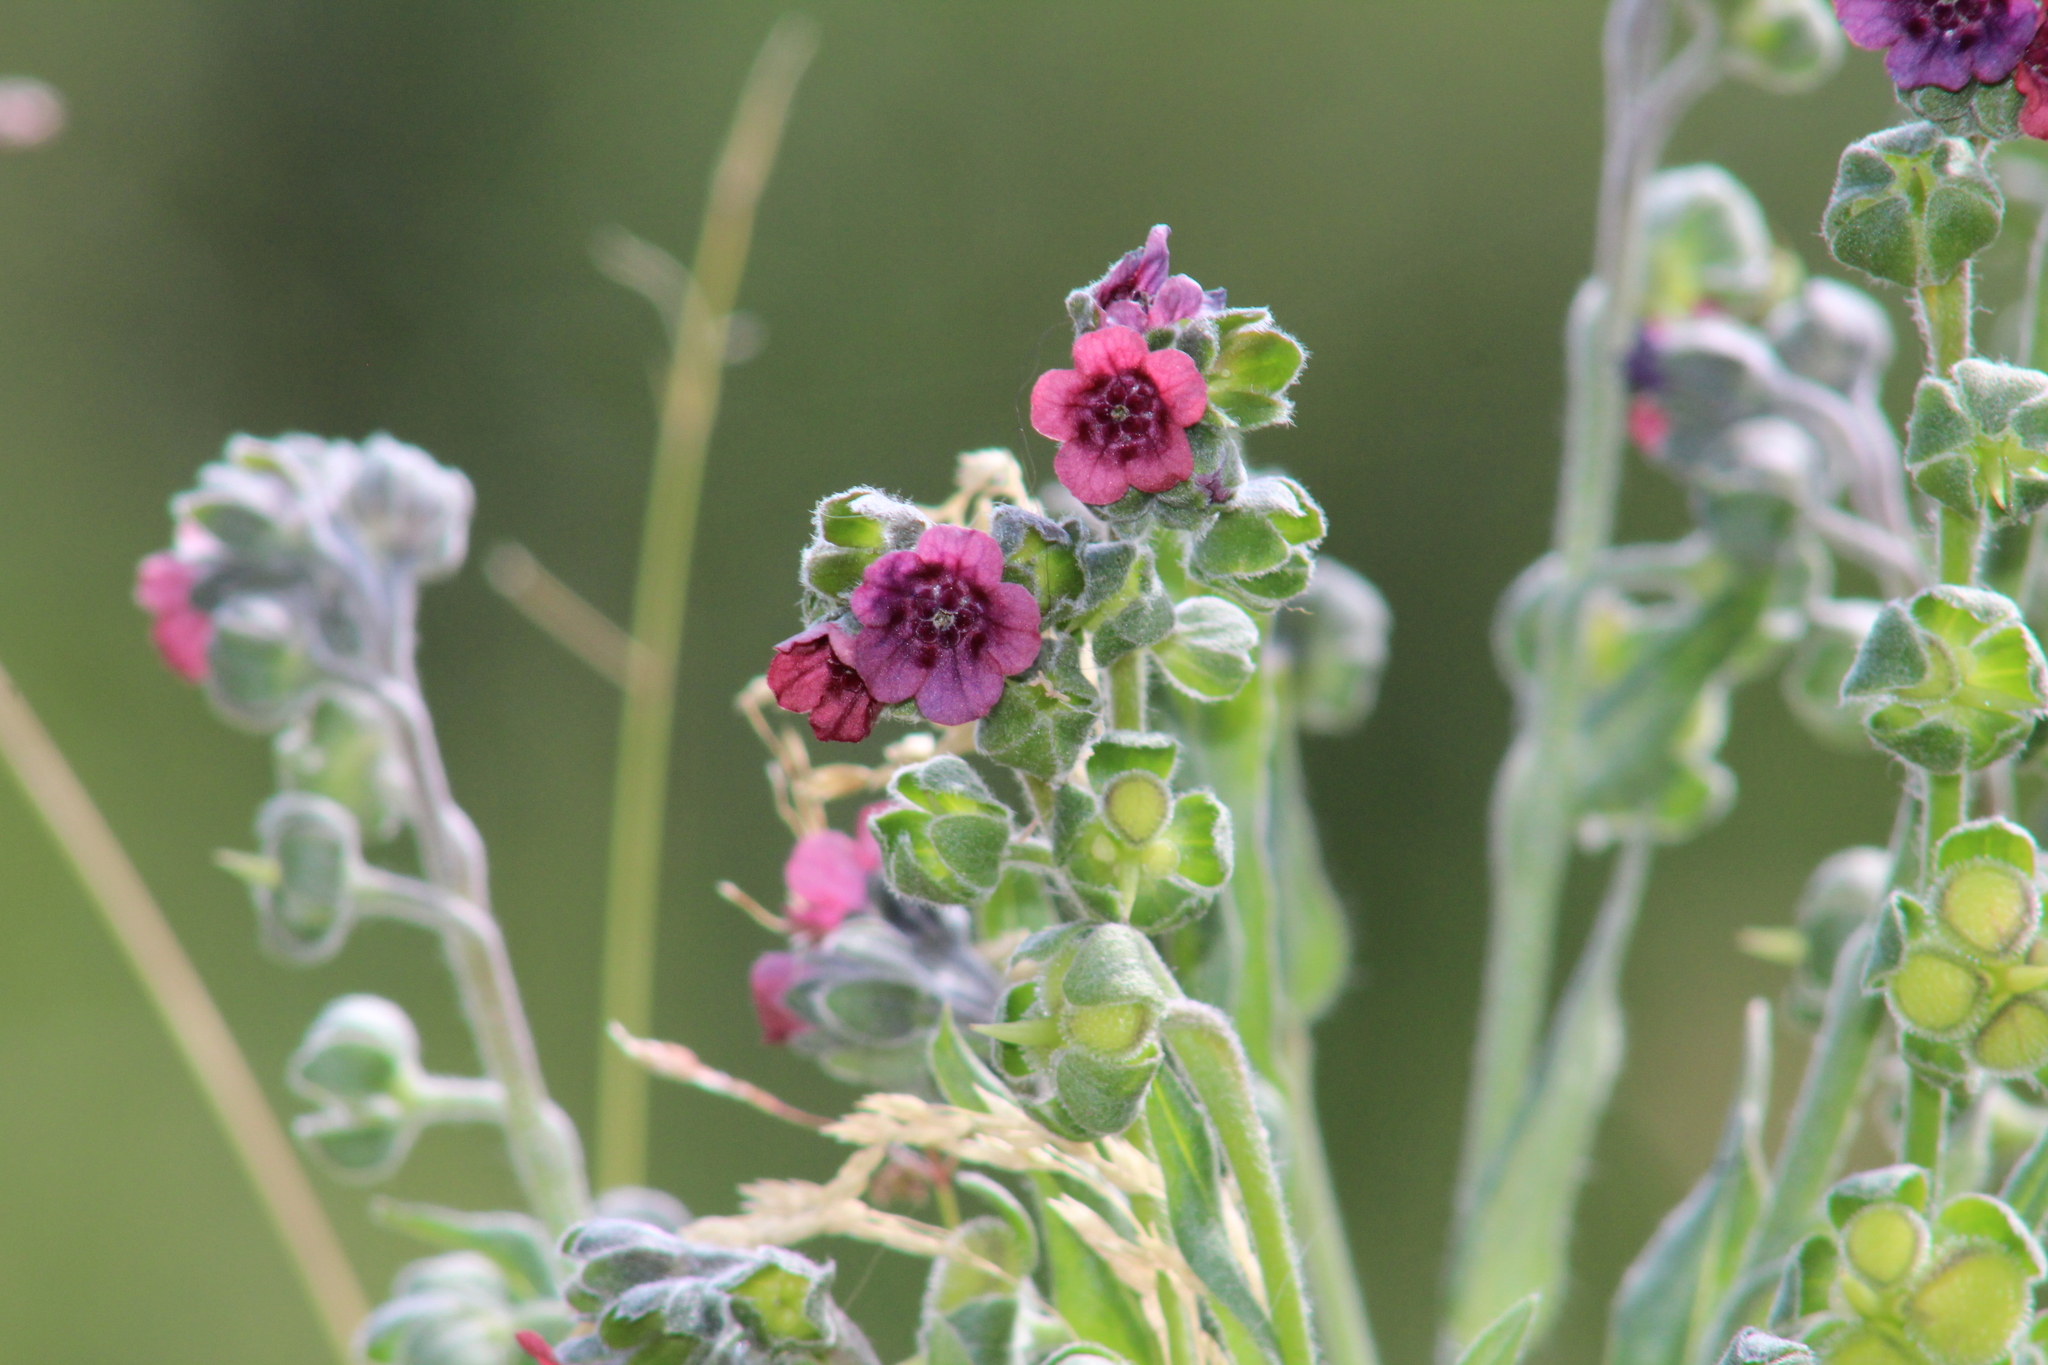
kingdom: Plantae
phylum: Tracheophyta
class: Magnoliopsida
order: Boraginales
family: Boraginaceae
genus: Cynoglossum
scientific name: Cynoglossum officinale
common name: Hound's-tongue
